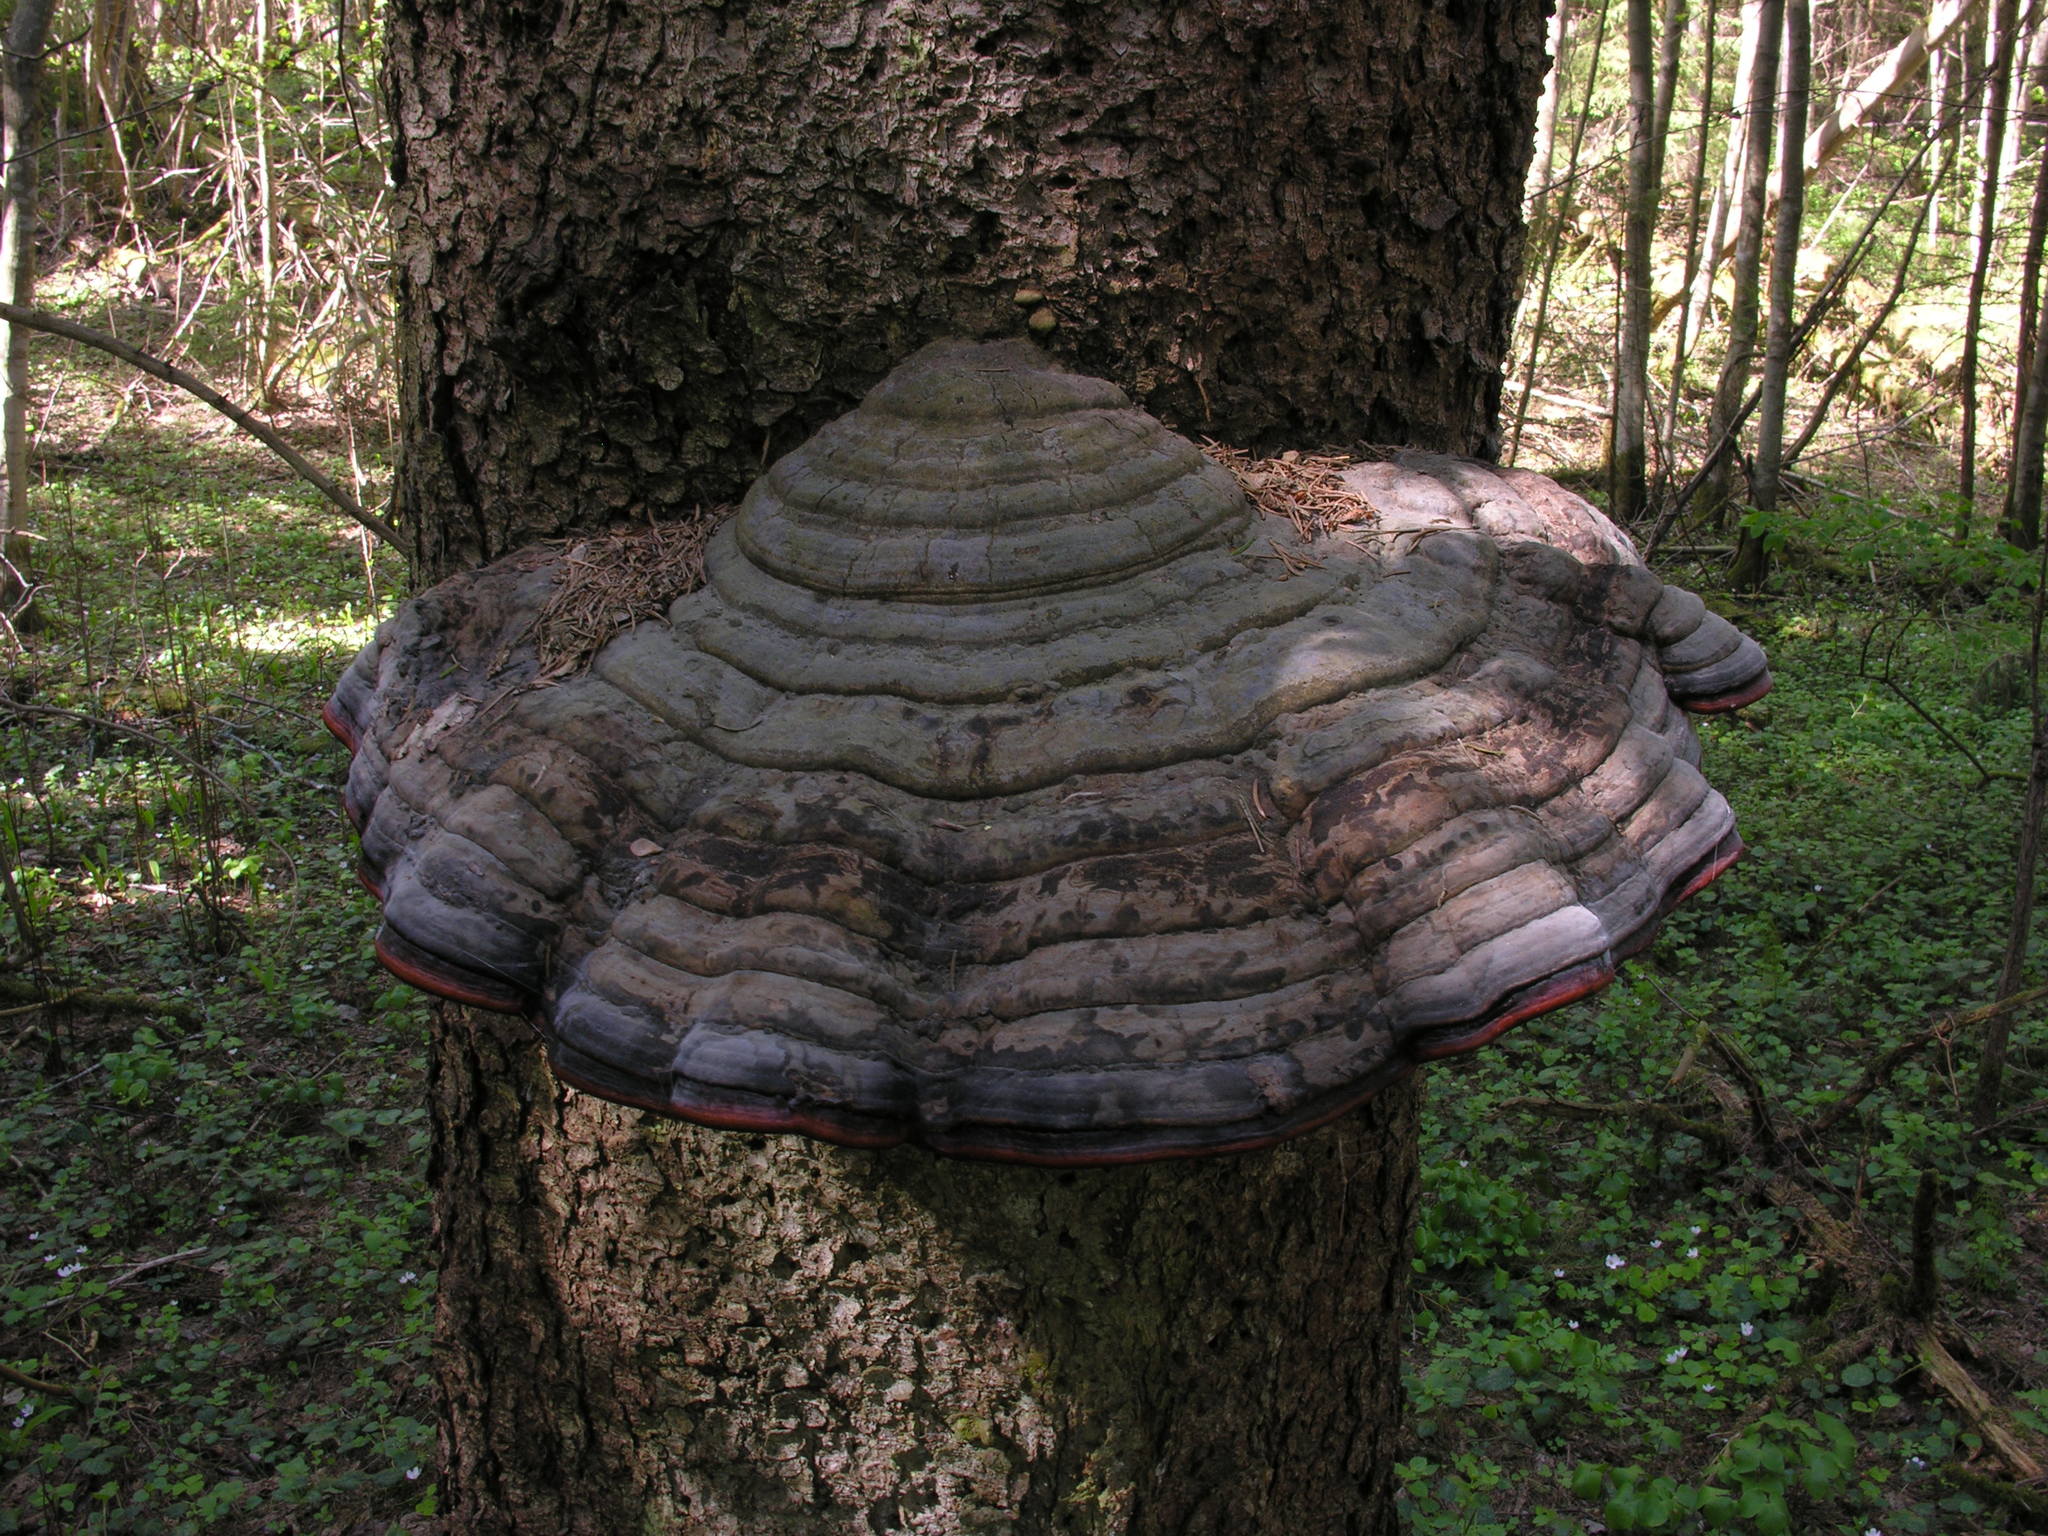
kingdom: Fungi
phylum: Basidiomycota
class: Agaricomycetes
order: Polyporales
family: Fomitopsidaceae
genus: Fomitopsis
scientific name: Fomitopsis pinicola
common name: Red-belted bracket
